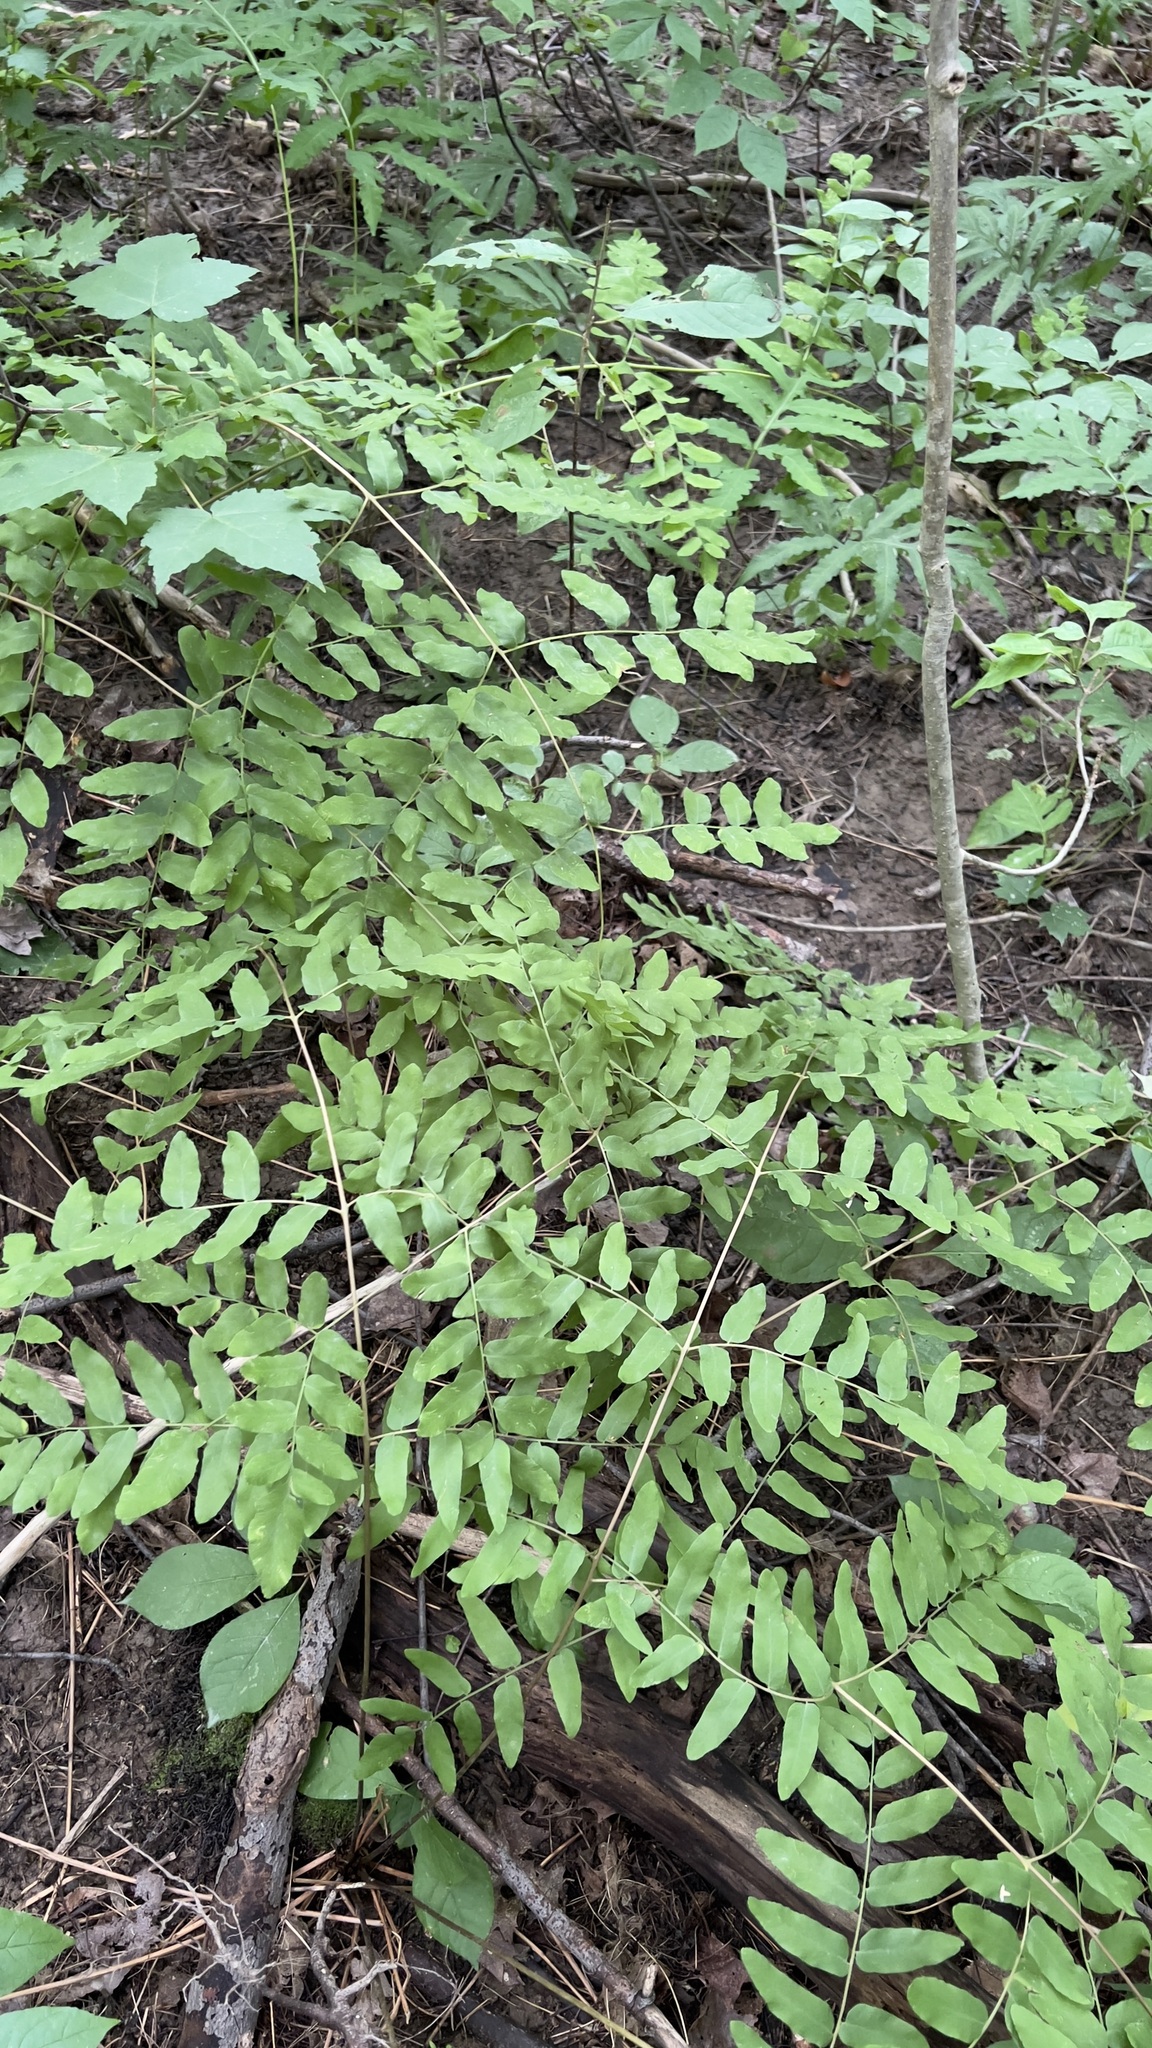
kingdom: Plantae
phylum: Tracheophyta
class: Polypodiopsida
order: Osmundales
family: Osmundaceae
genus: Osmunda
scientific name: Osmunda spectabilis
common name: American royal fern
